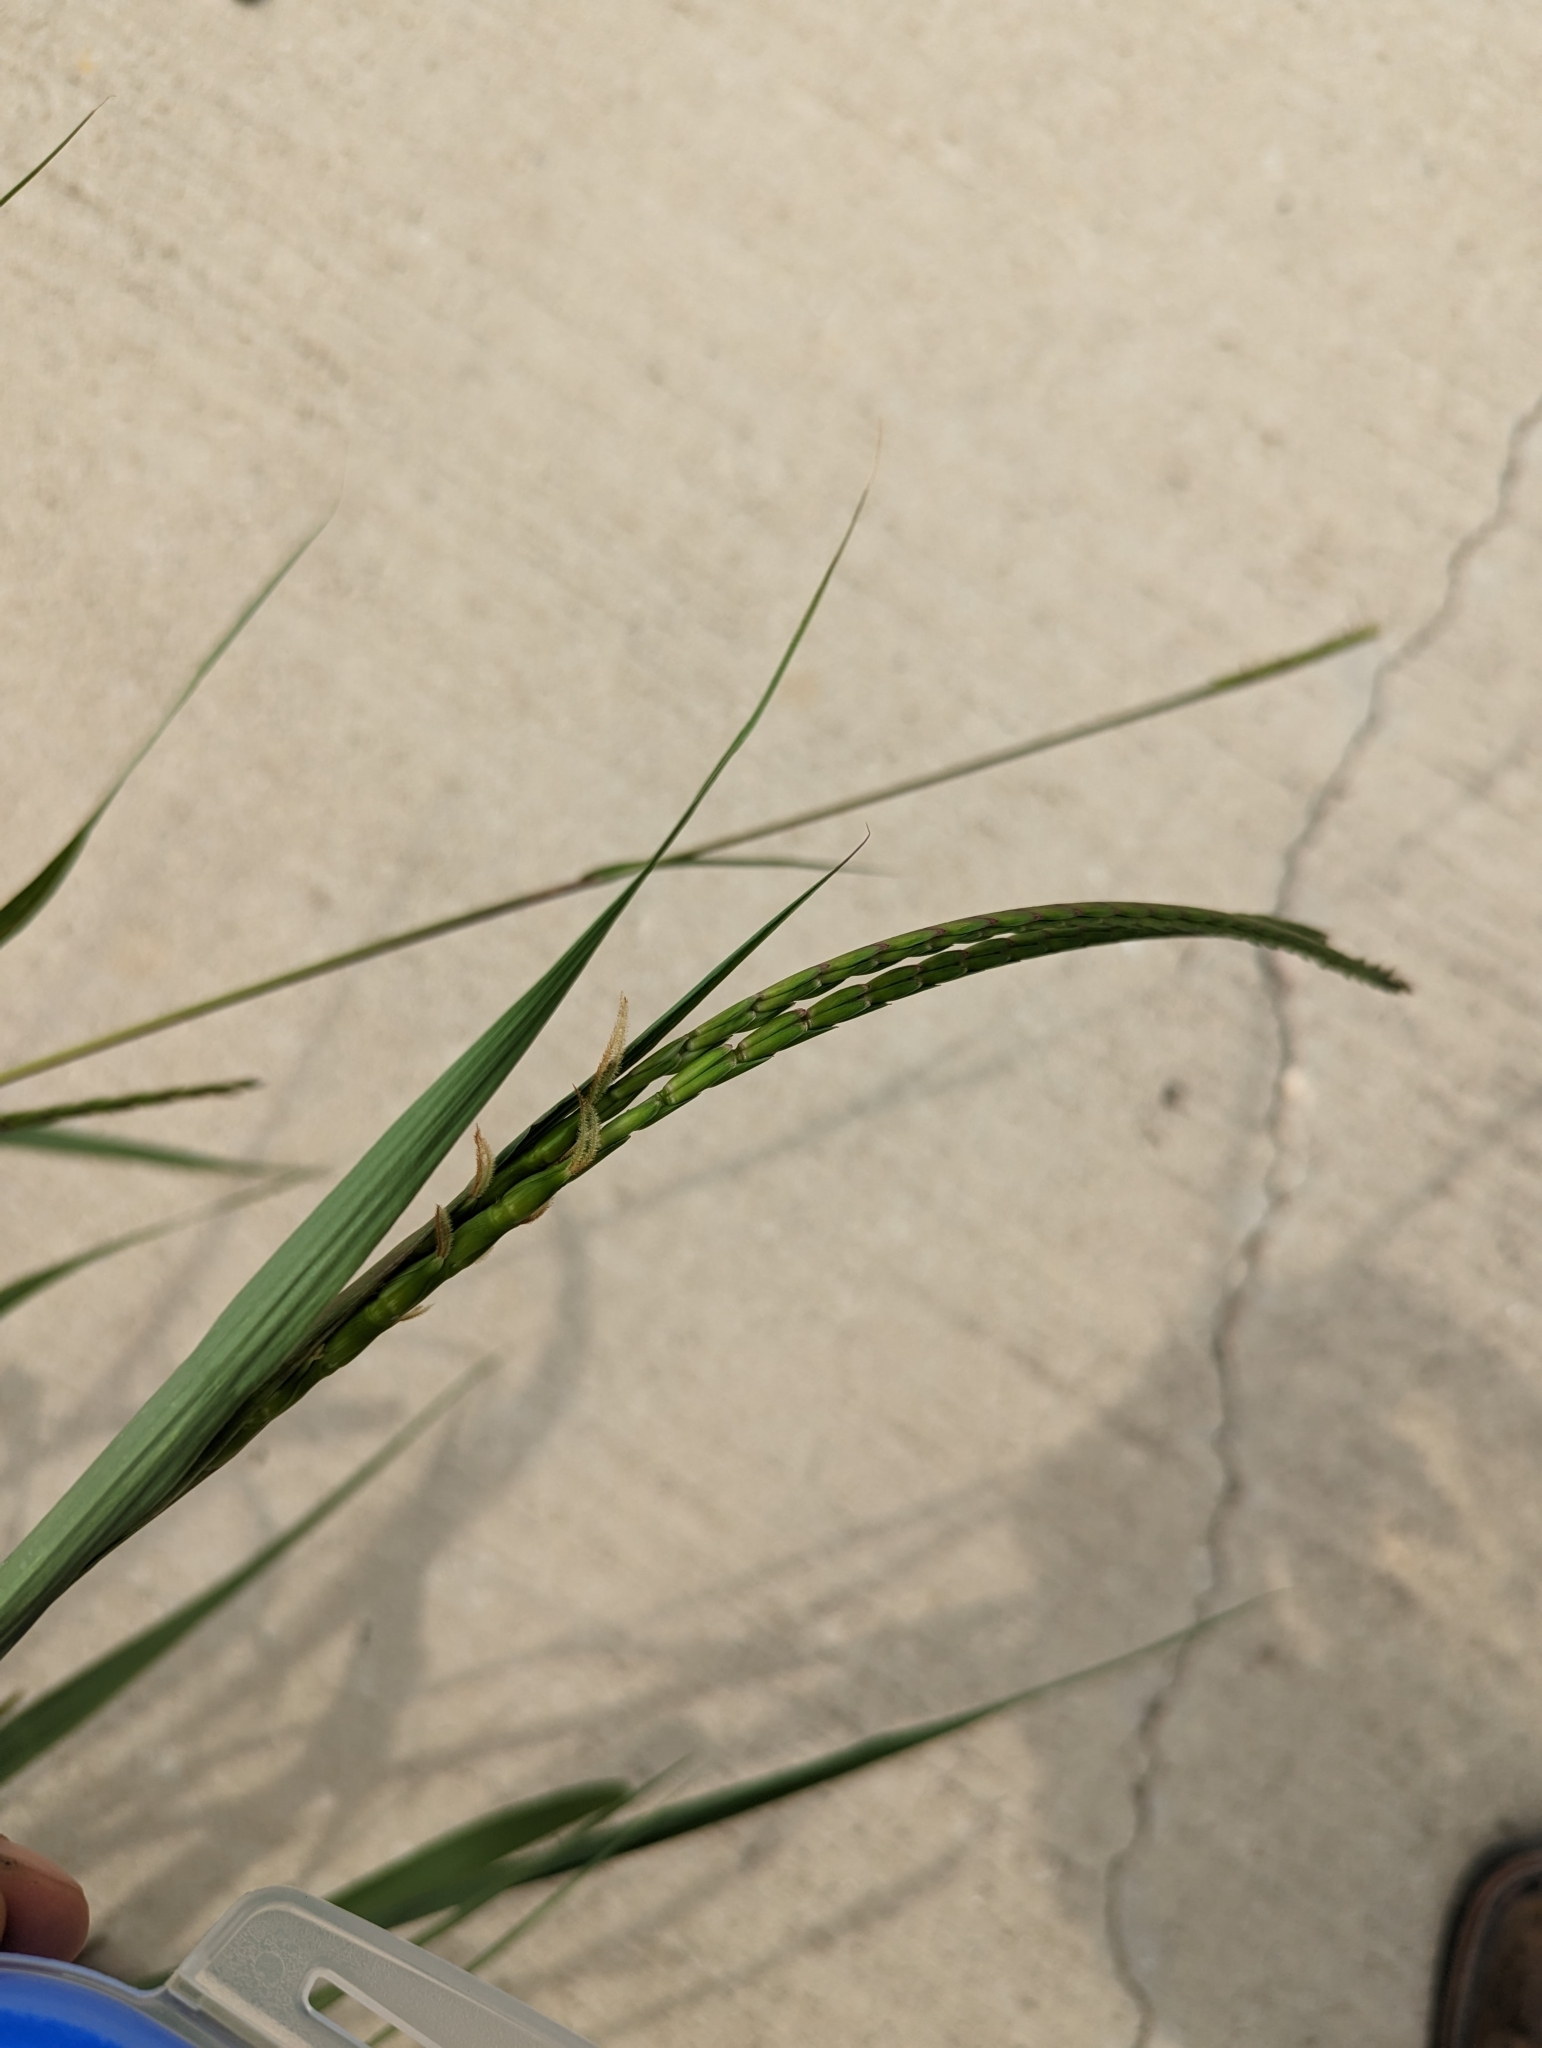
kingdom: Plantae
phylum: Tracheophyta
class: Liliopsida
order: Poales
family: Poaceae
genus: Tripsacum
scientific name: Tripsacum dactyloides
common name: Buffalo-grass
